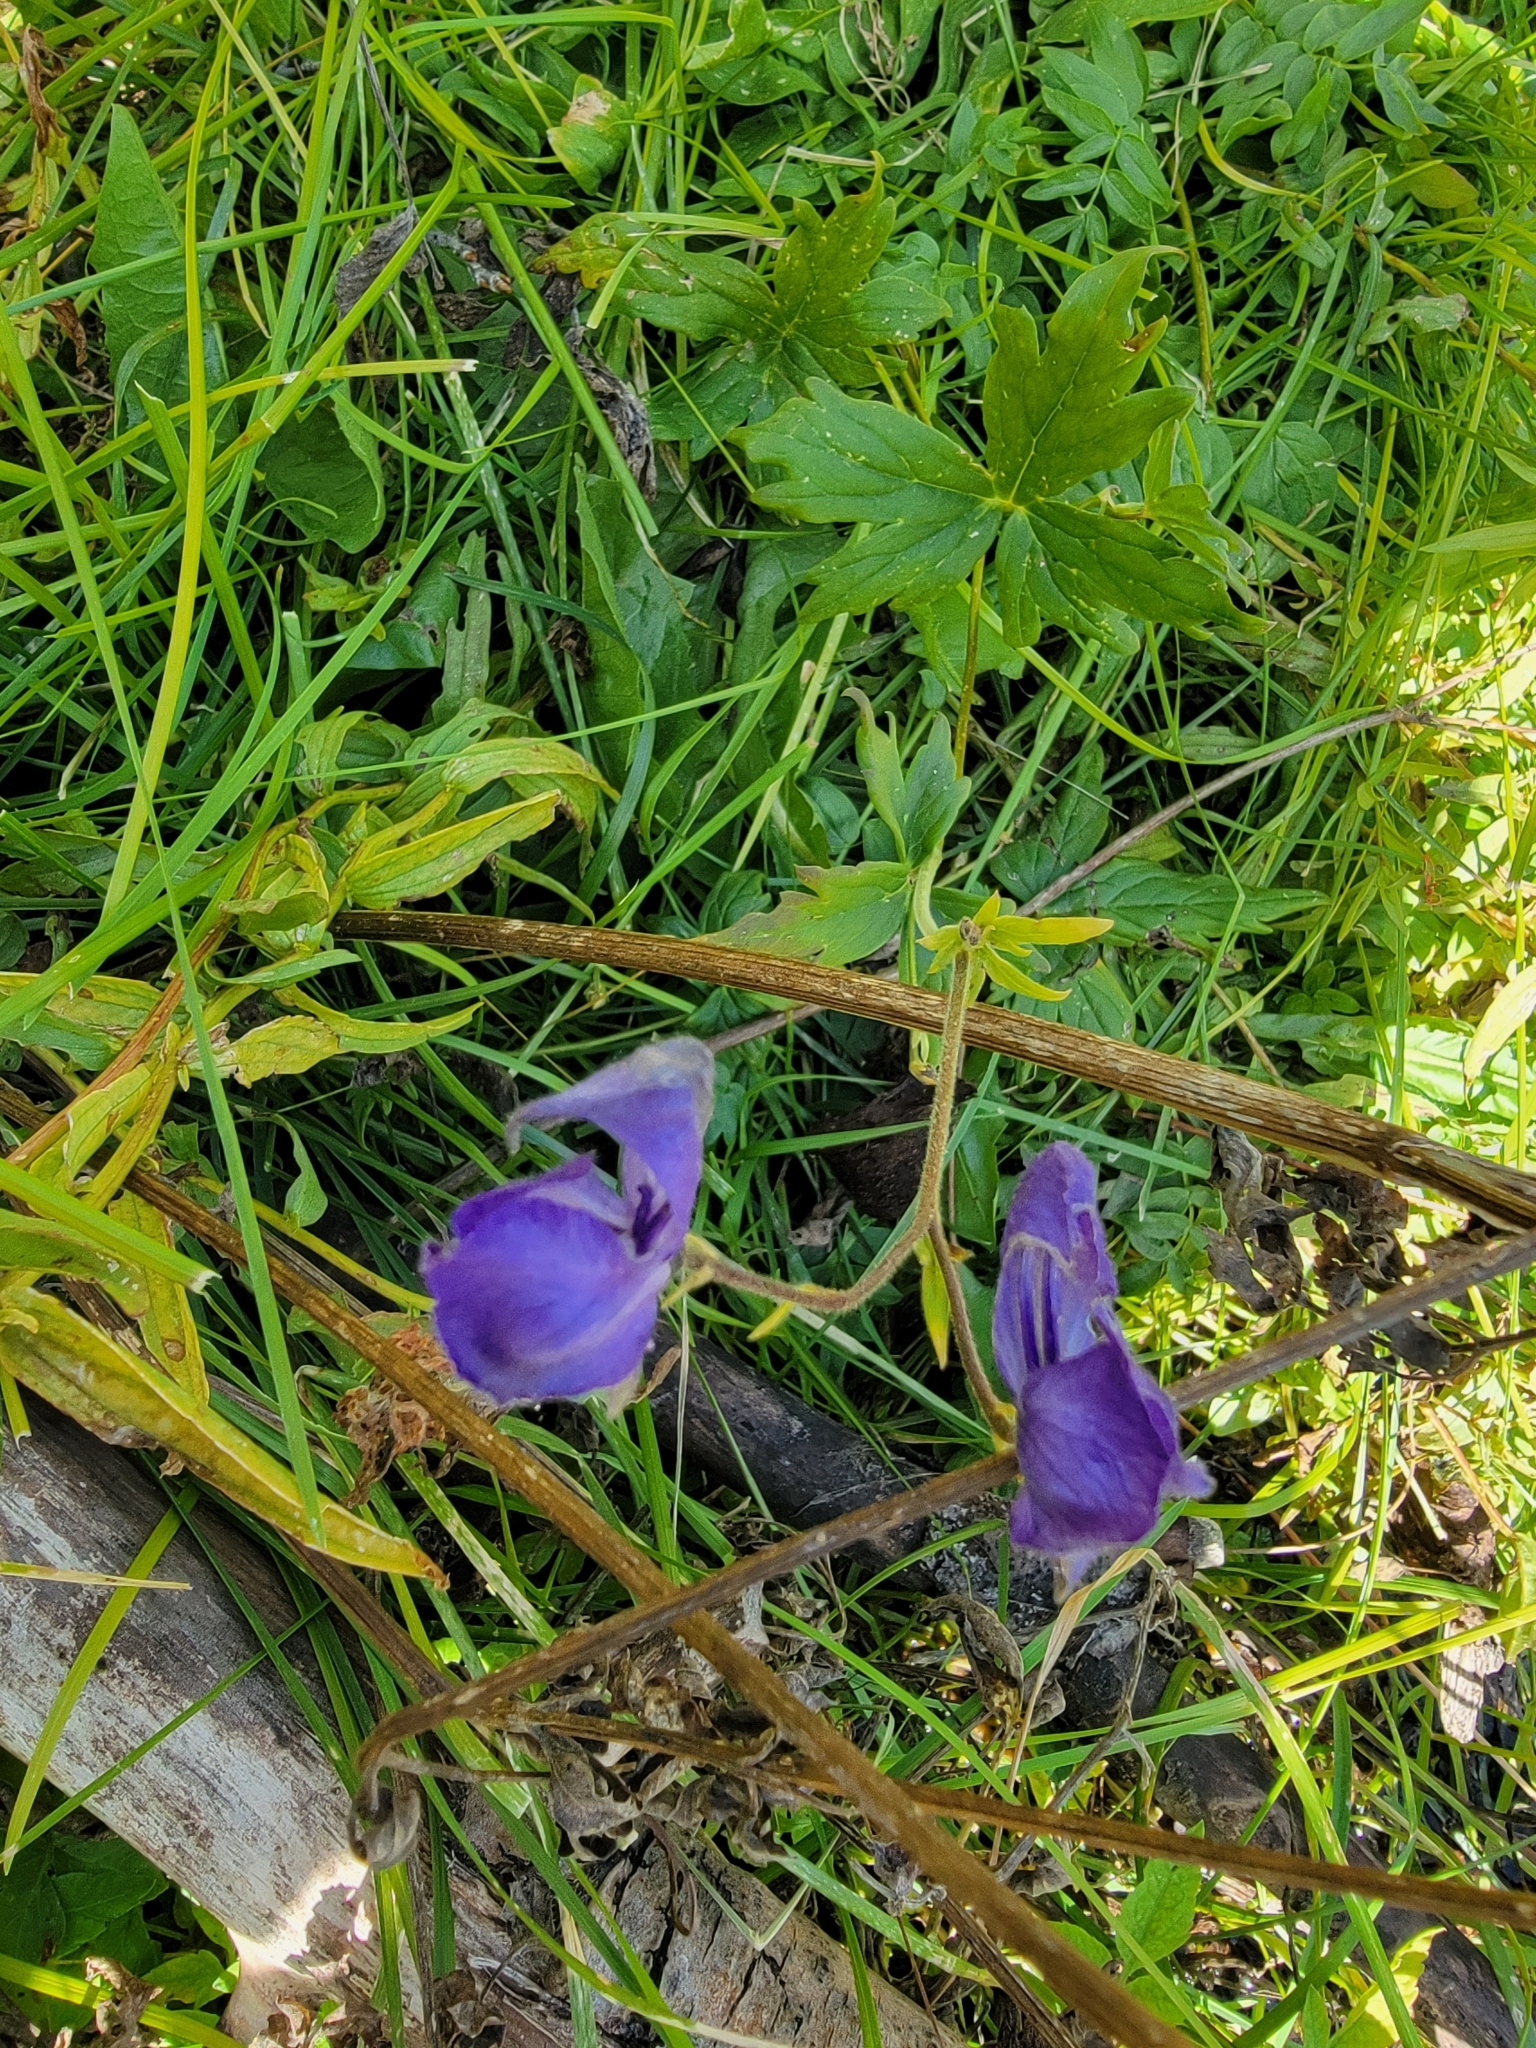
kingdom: Plantae
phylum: Tracheophyta
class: Magnoliopsida
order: Ranunculales
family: Ranunculaceae
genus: Aconitum
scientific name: Aconitum columbianum
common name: Columbia aconite
